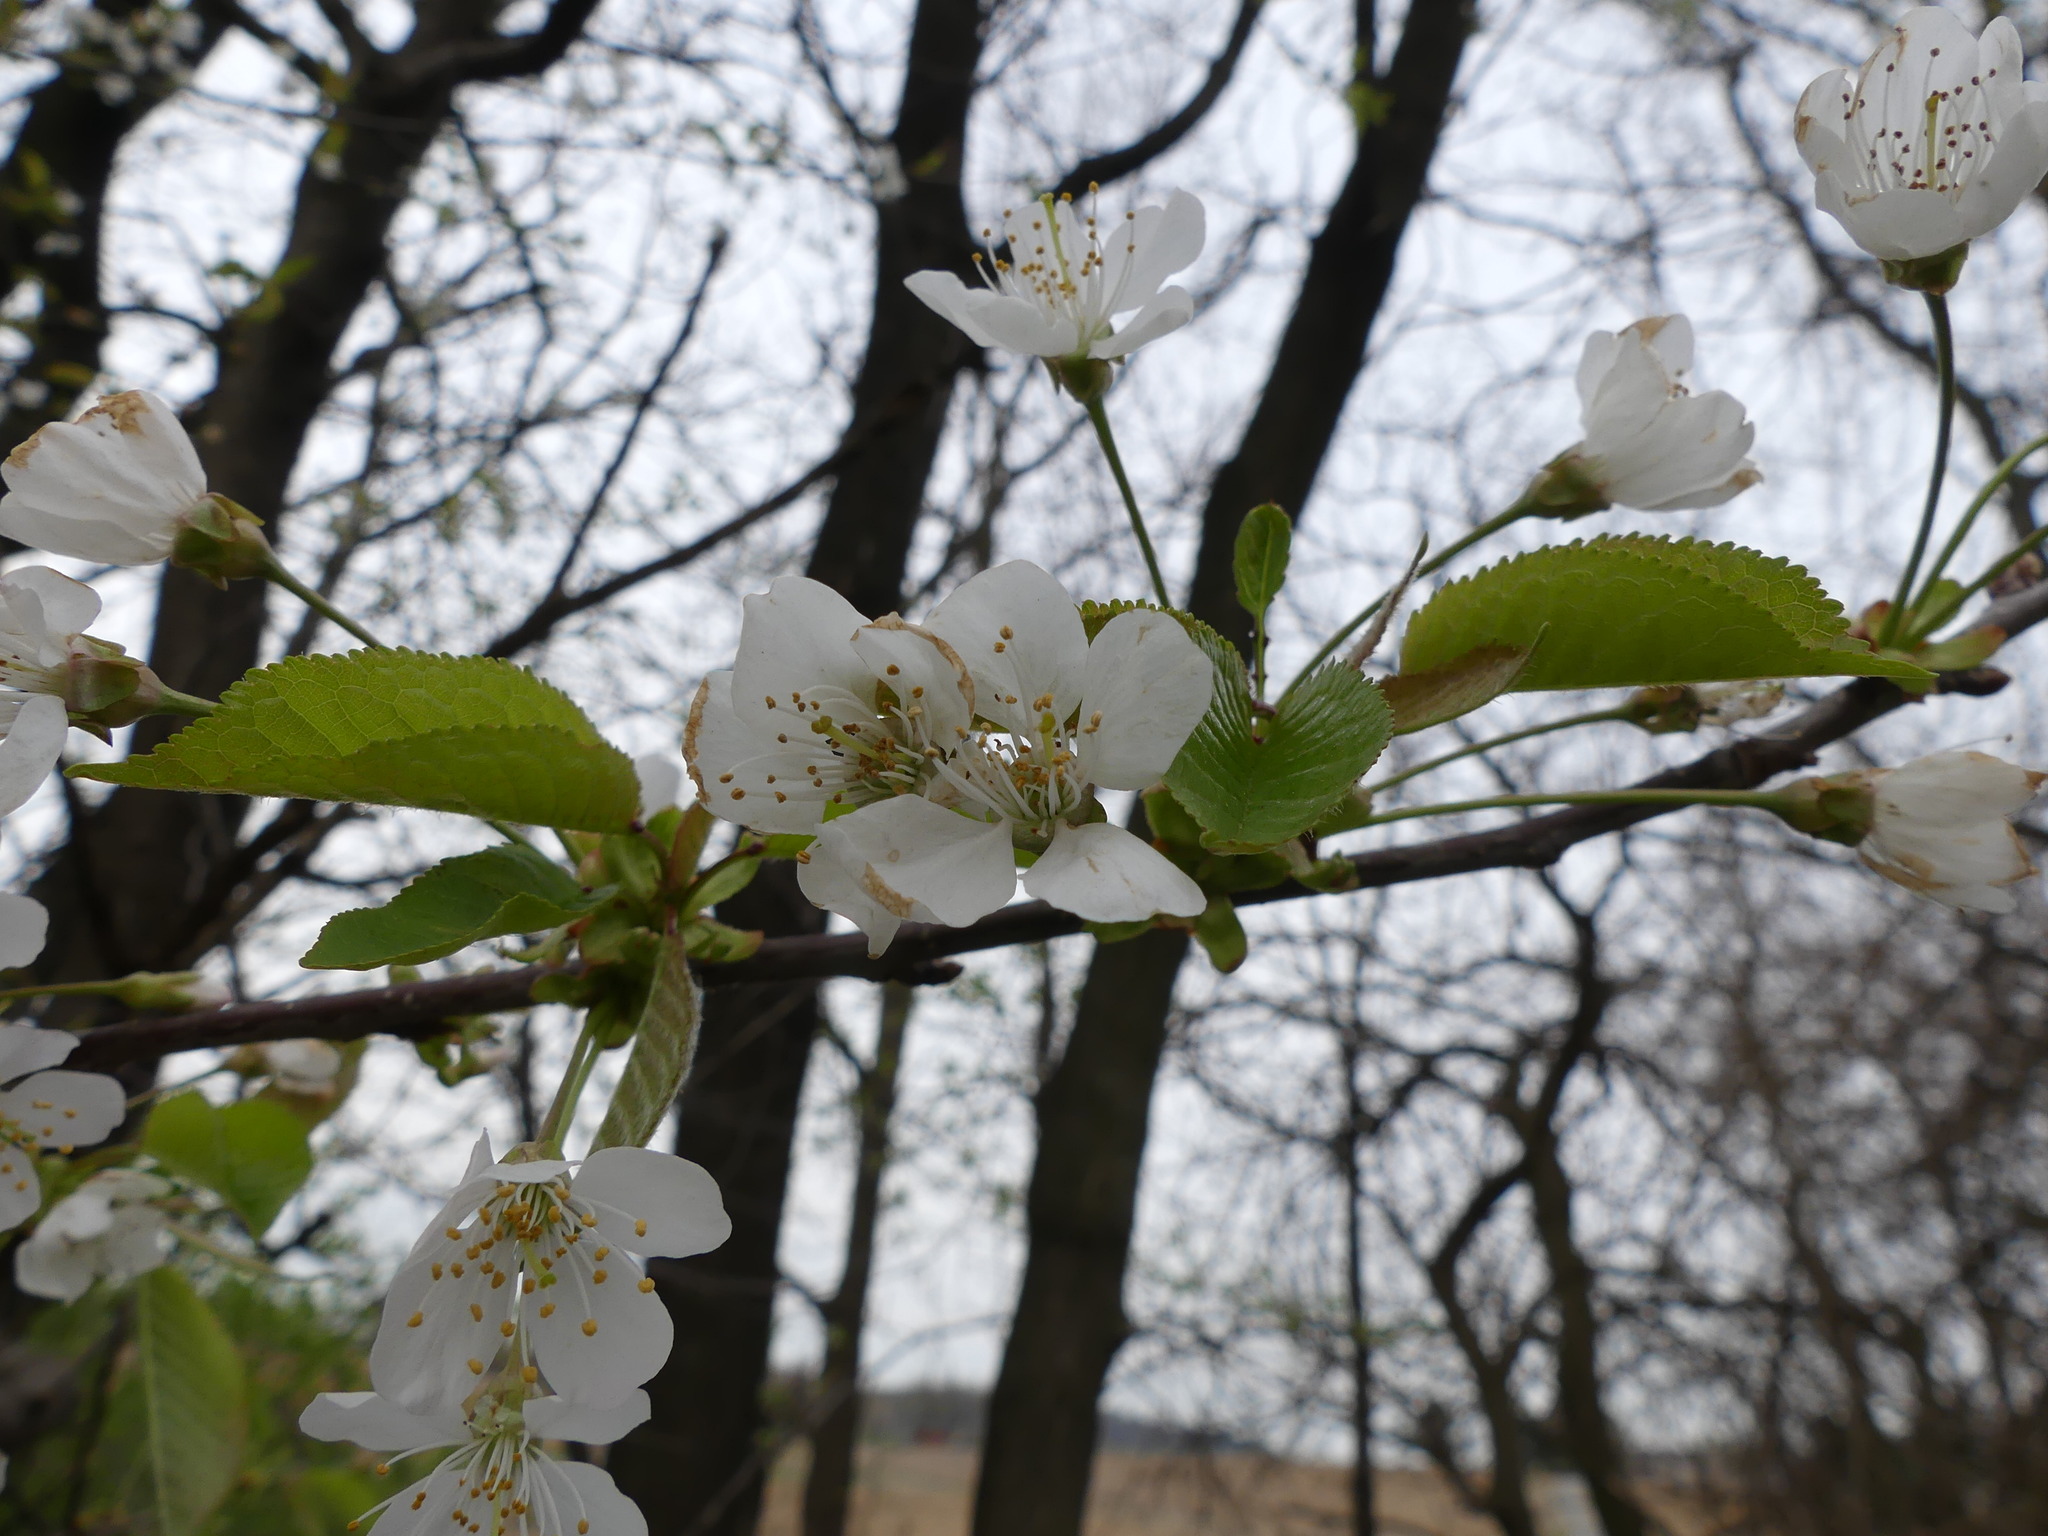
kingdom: Plantae
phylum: Tracheophyta
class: Magnoliopsida
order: Rosales
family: Rosaceae
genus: Prunus
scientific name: Prunus avium
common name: Sweet cherry
